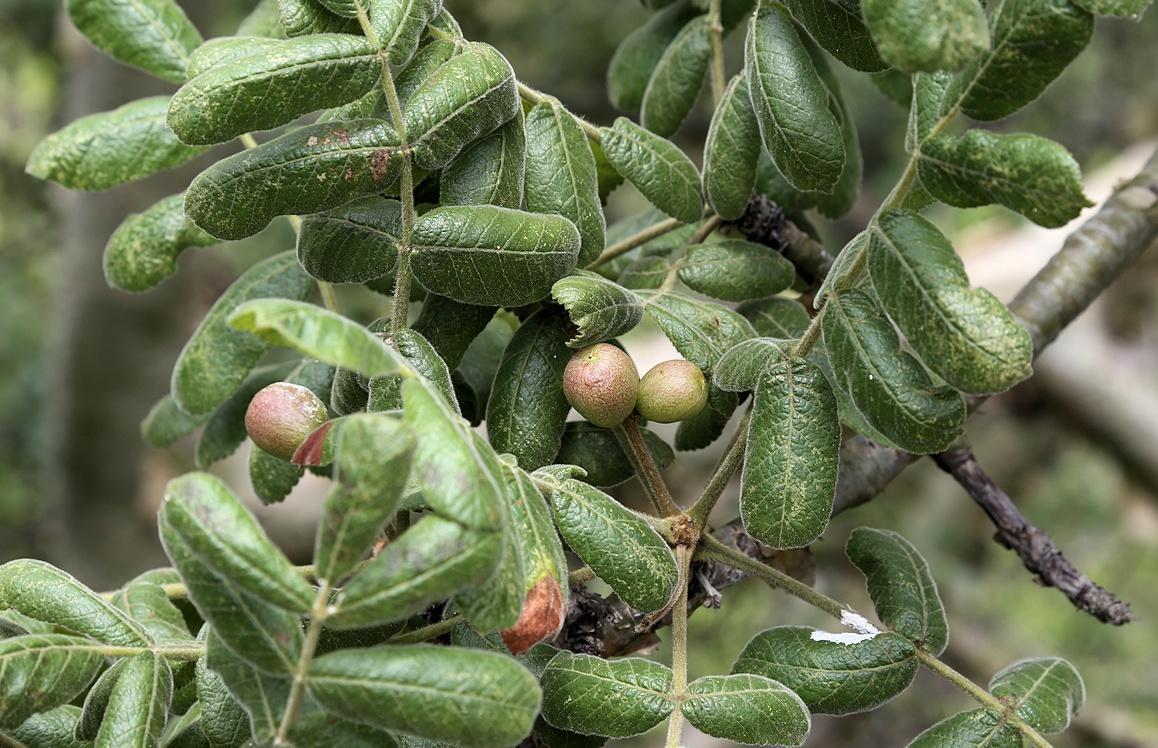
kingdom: Plantae
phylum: Tracheophyta
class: Magnoliopsida
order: Sapindales
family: Burseraceae
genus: Commiphora
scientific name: Commiphora marlothii
